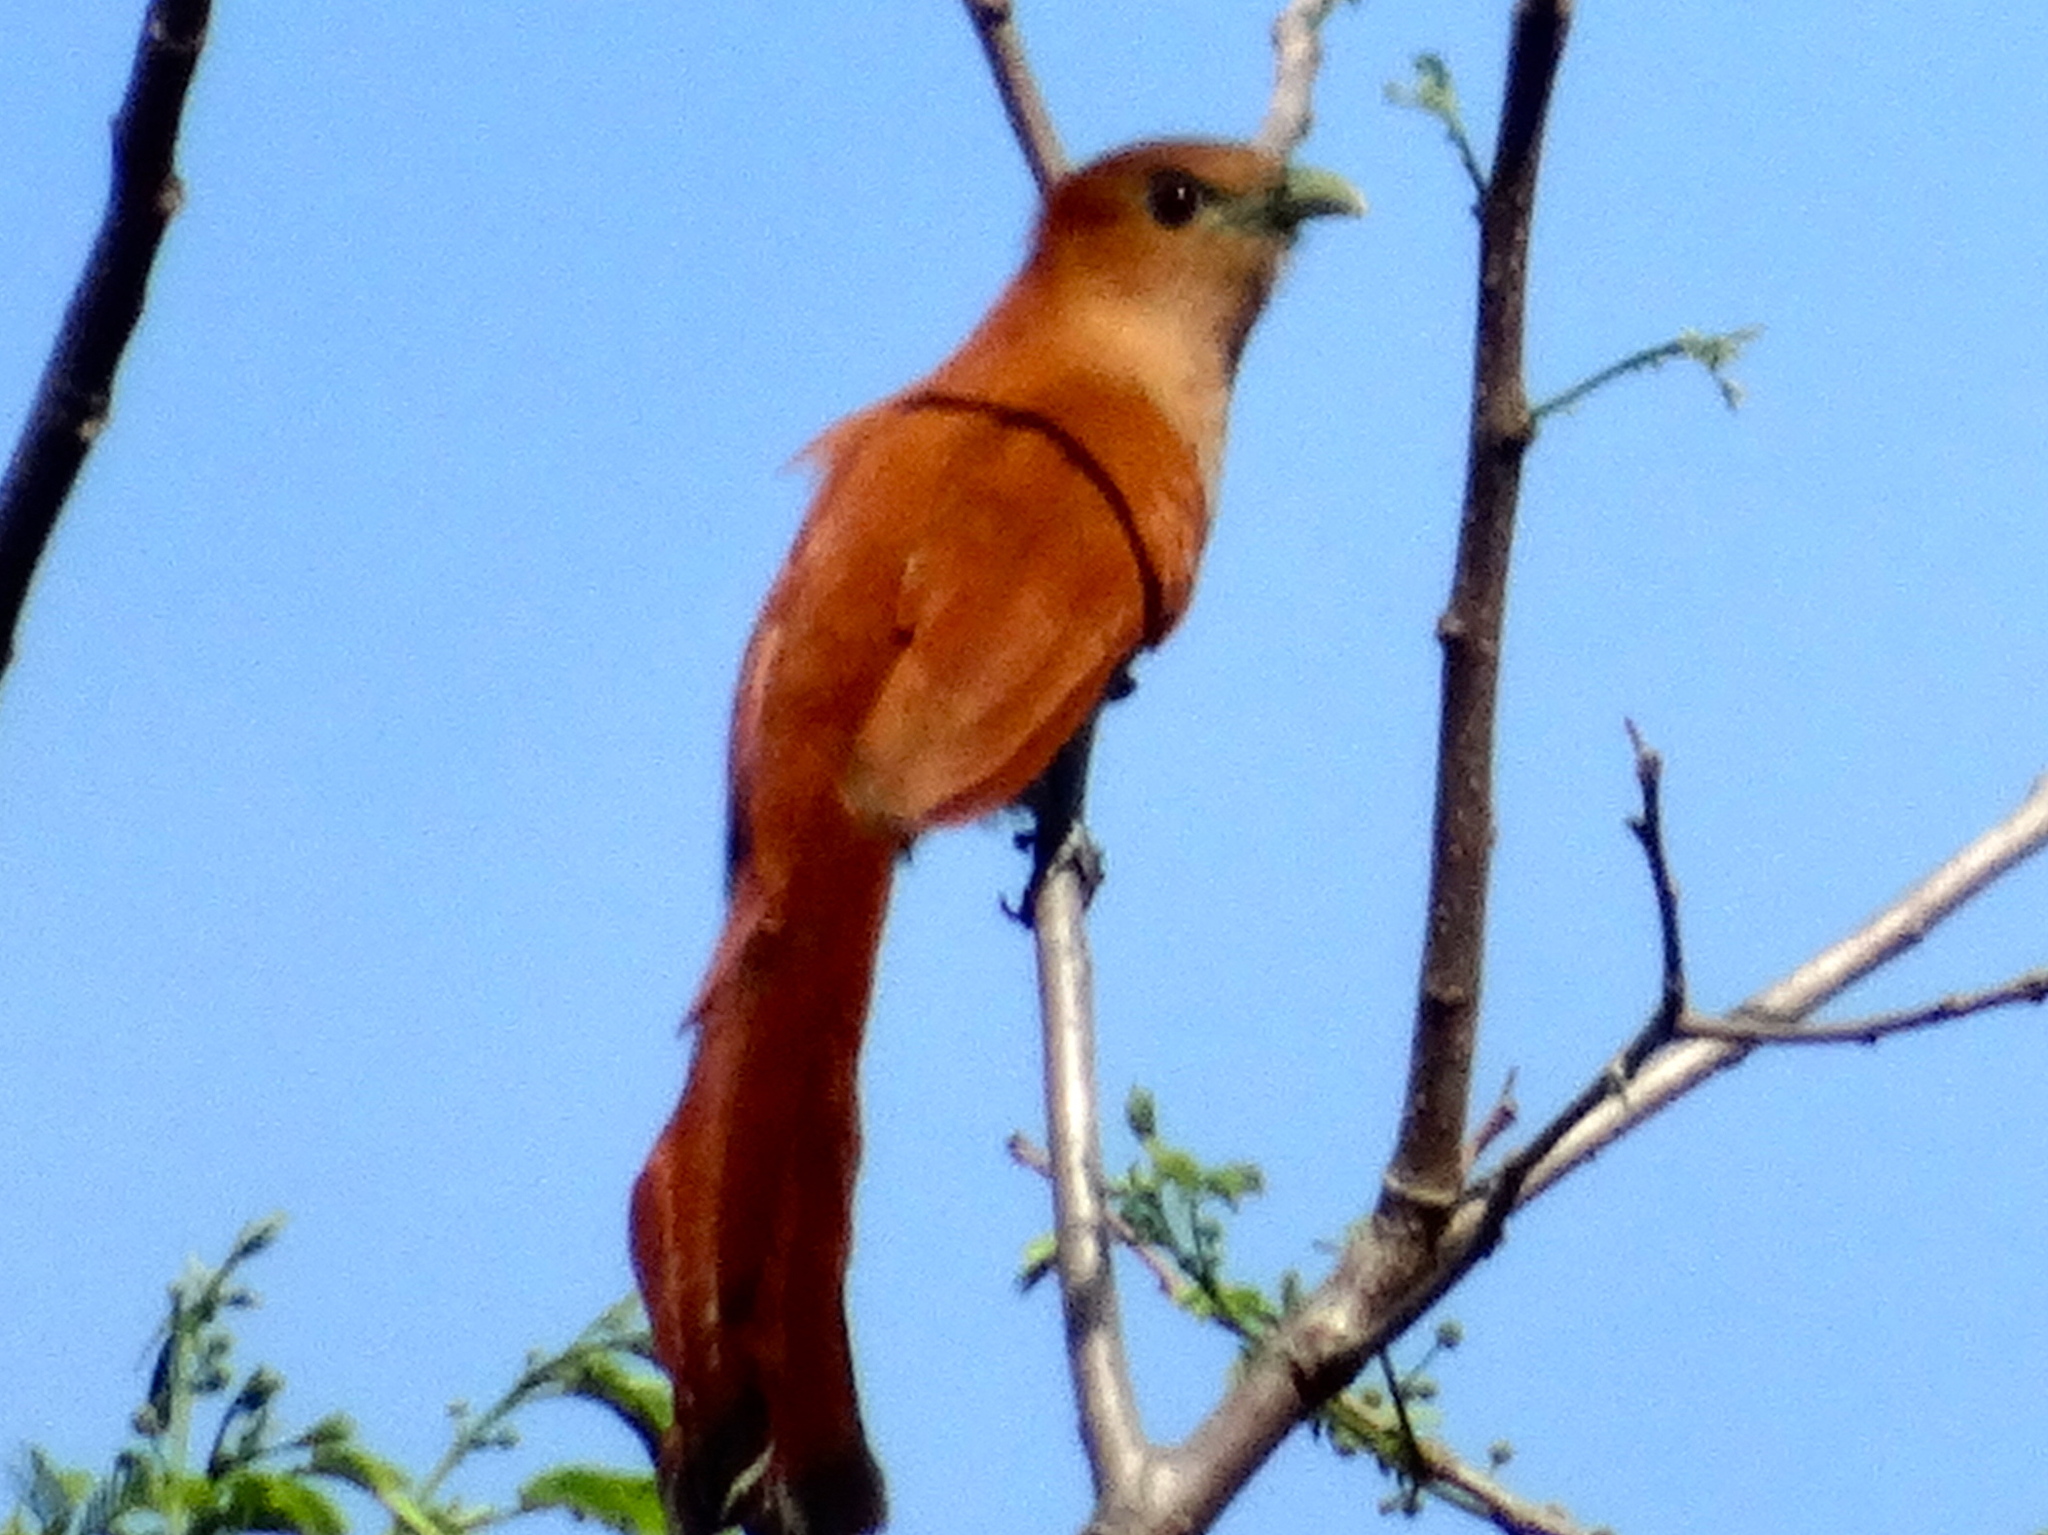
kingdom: Animalia
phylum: Chordata
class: Aves
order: Cuculiformes
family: Cuculidae
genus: Piaya
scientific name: Piaya cayana
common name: Squirrel cuckoo
